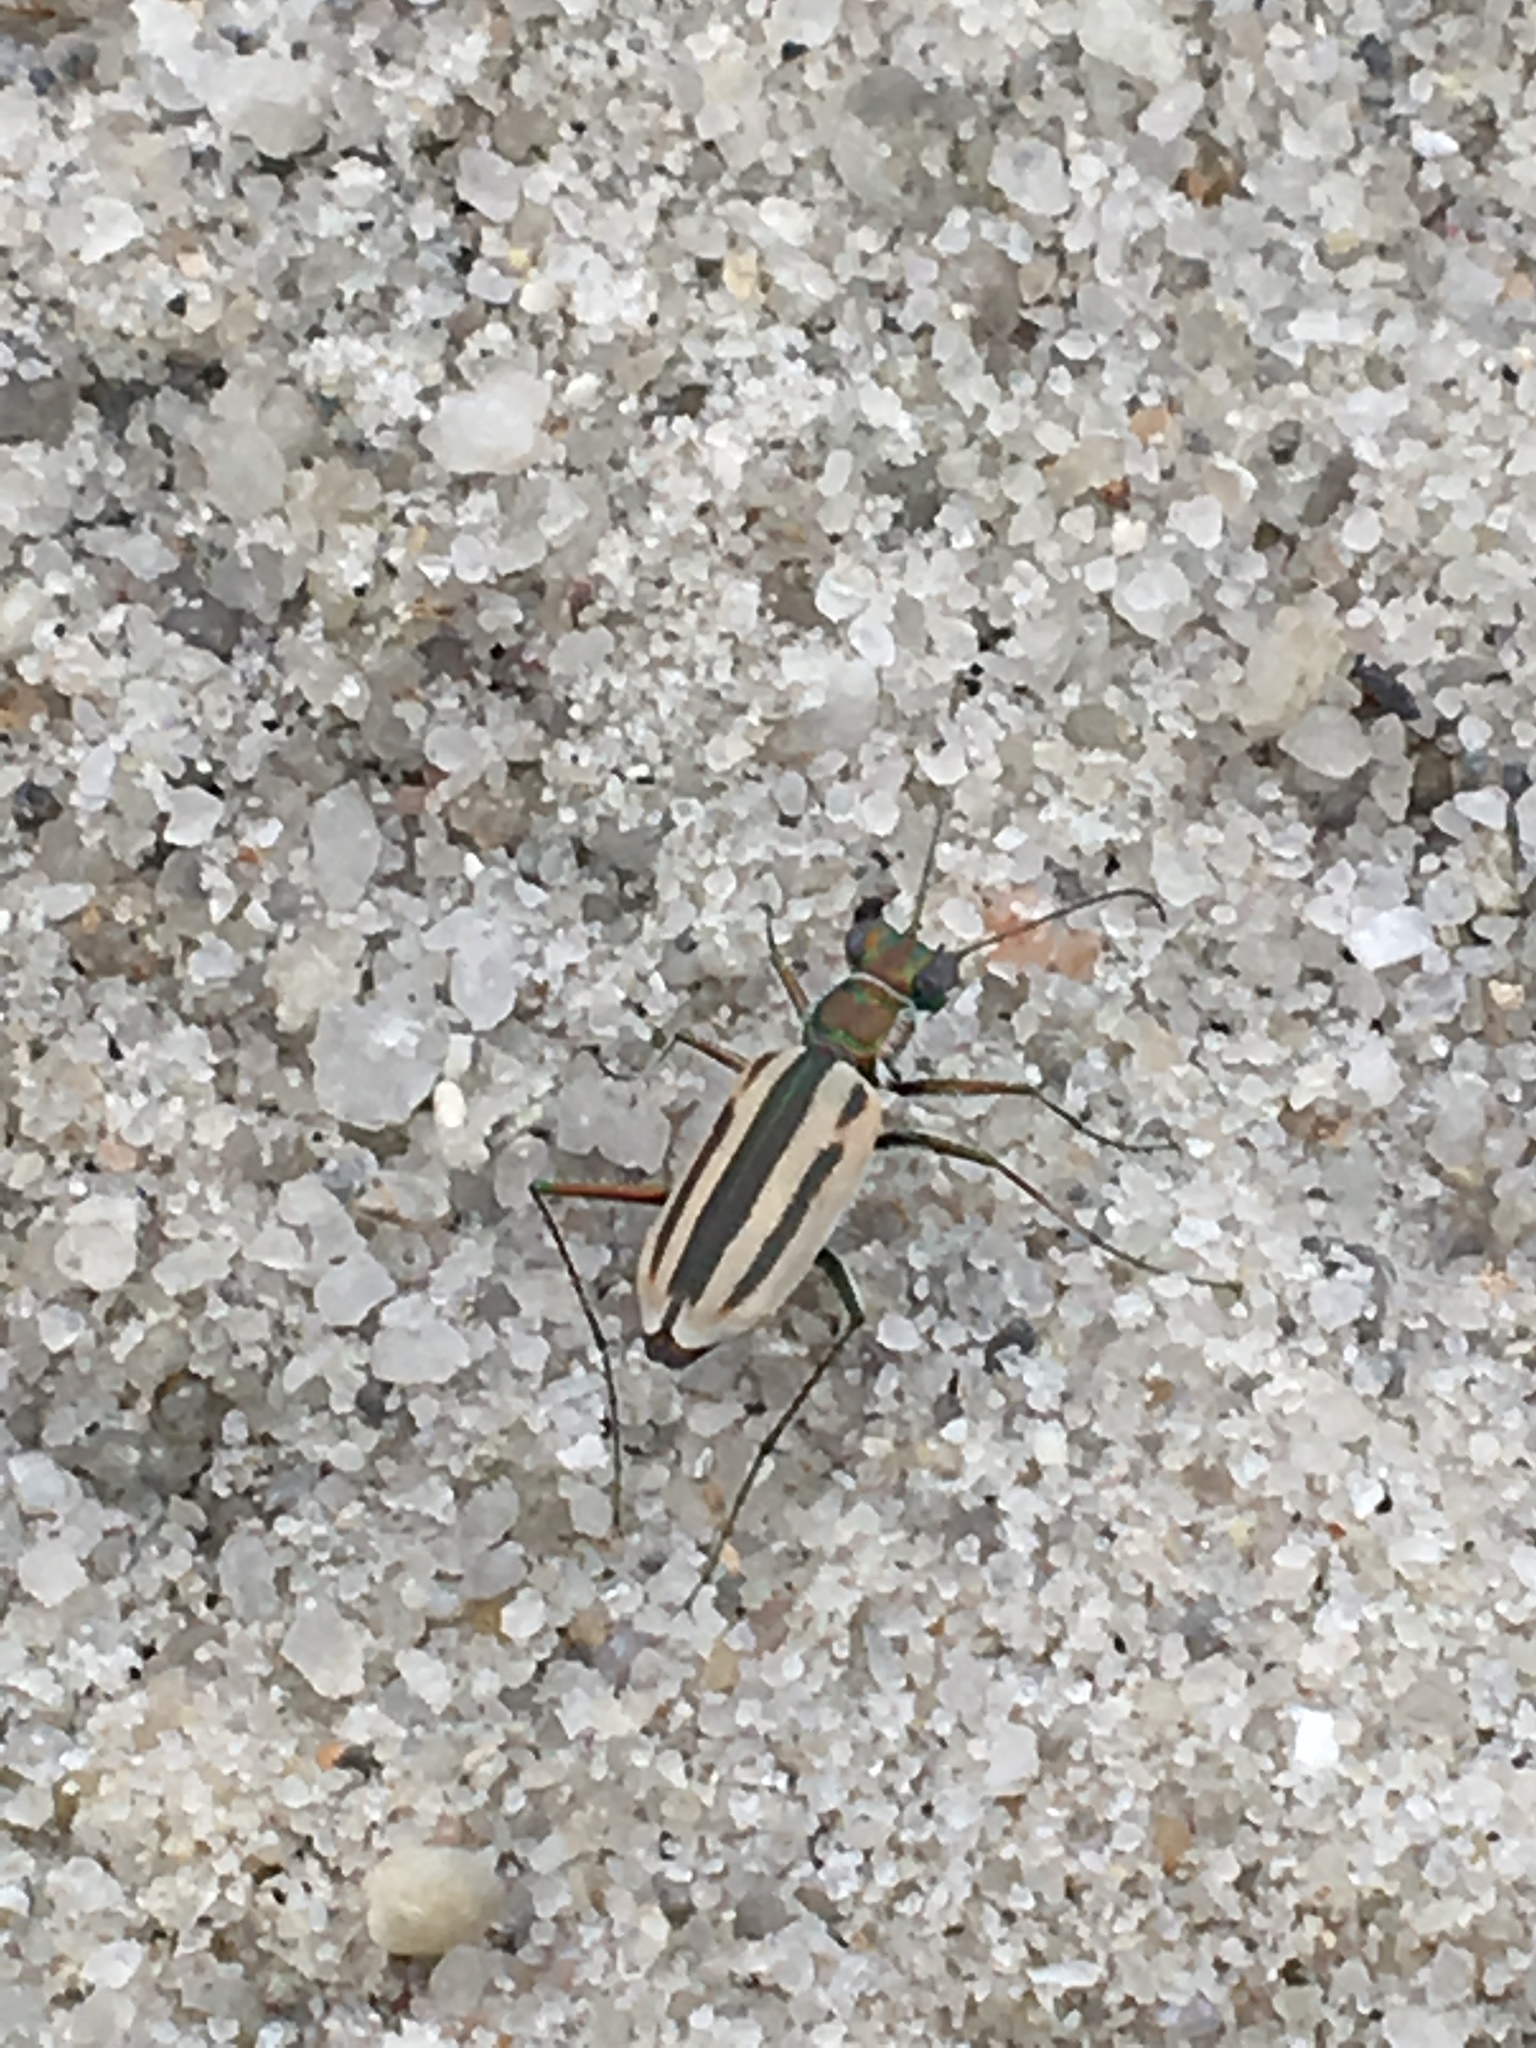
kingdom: Animalia
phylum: Arthropoda
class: Insecta
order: Coleoptera
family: Carabidae
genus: Hypaetha
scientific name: Hypaetha quadrilineata
